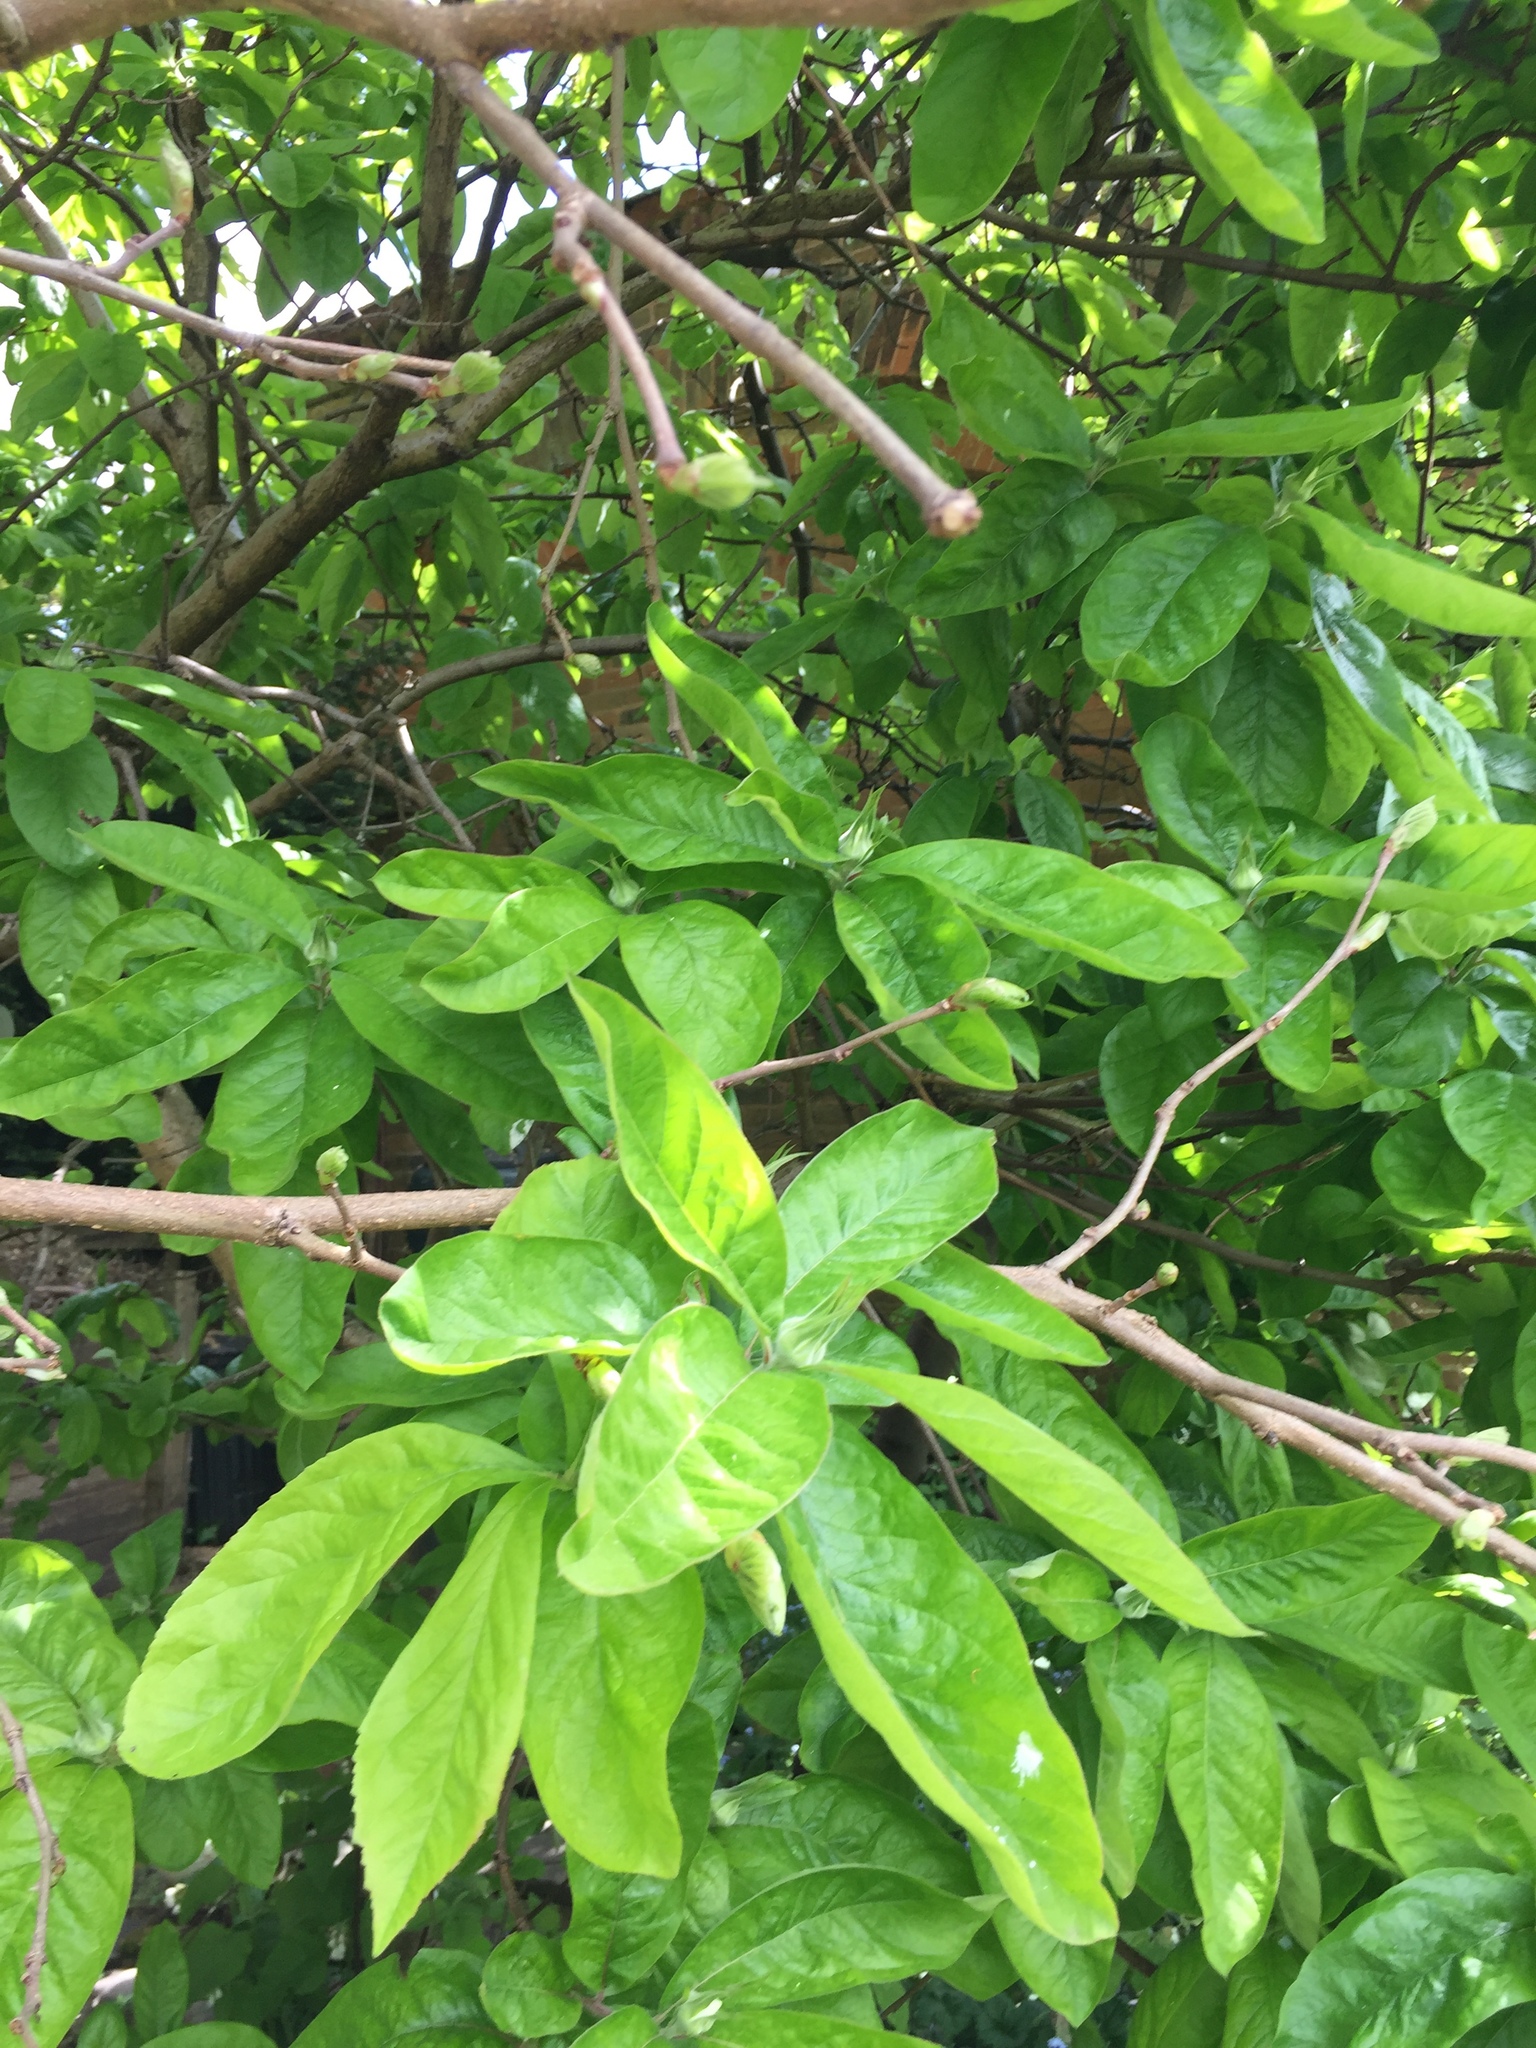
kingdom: Plantae
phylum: Tracheophyta
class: Magnoliopsida
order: Rosales
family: Rosaceae
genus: Mespilus
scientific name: Mespilus germanica
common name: Medlar
